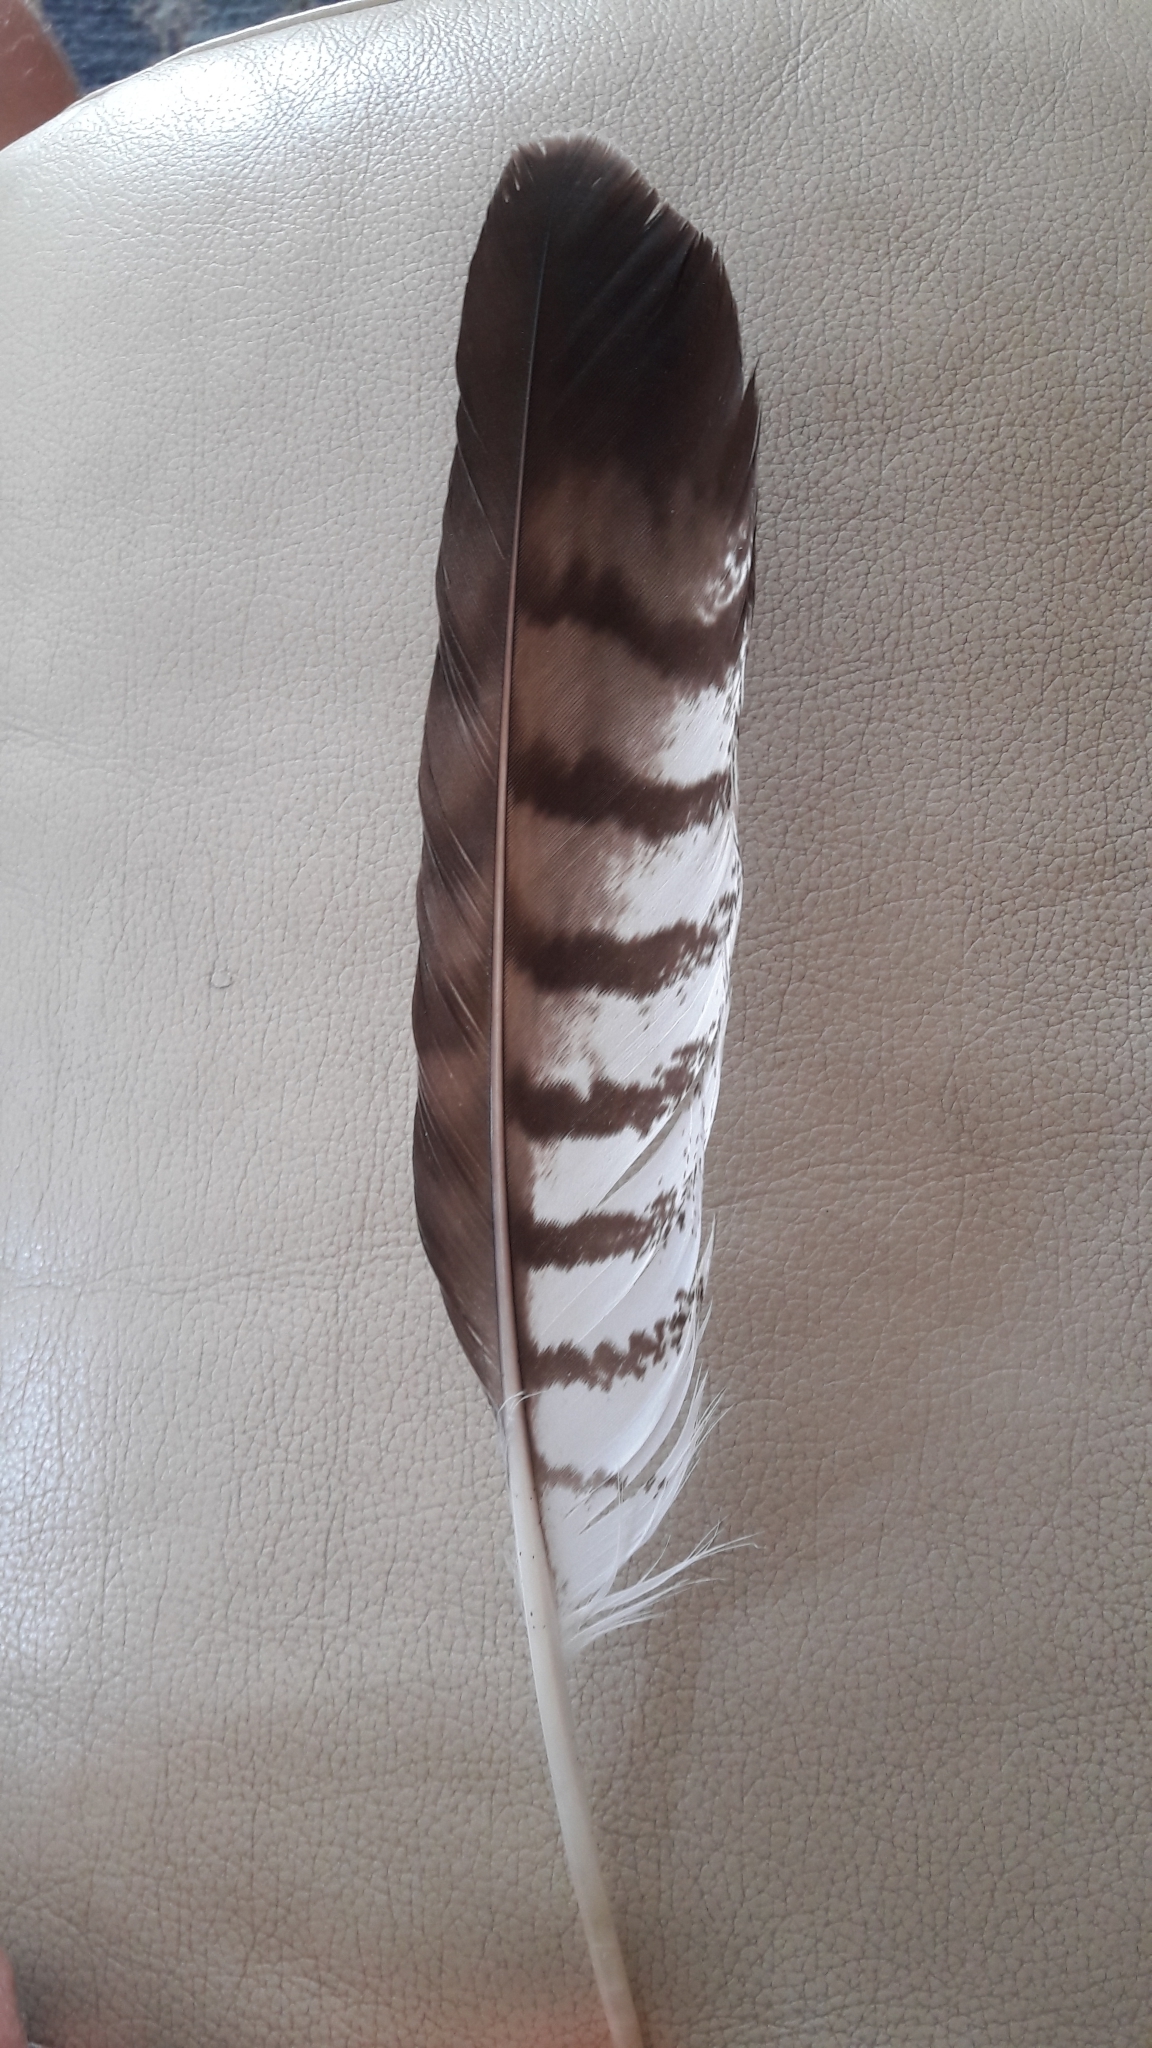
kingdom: Animalia
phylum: Chordata
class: Aves
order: Accipitriformes
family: Accipitridae
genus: Buteo
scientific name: Buteo buteo
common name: Common buzzard
